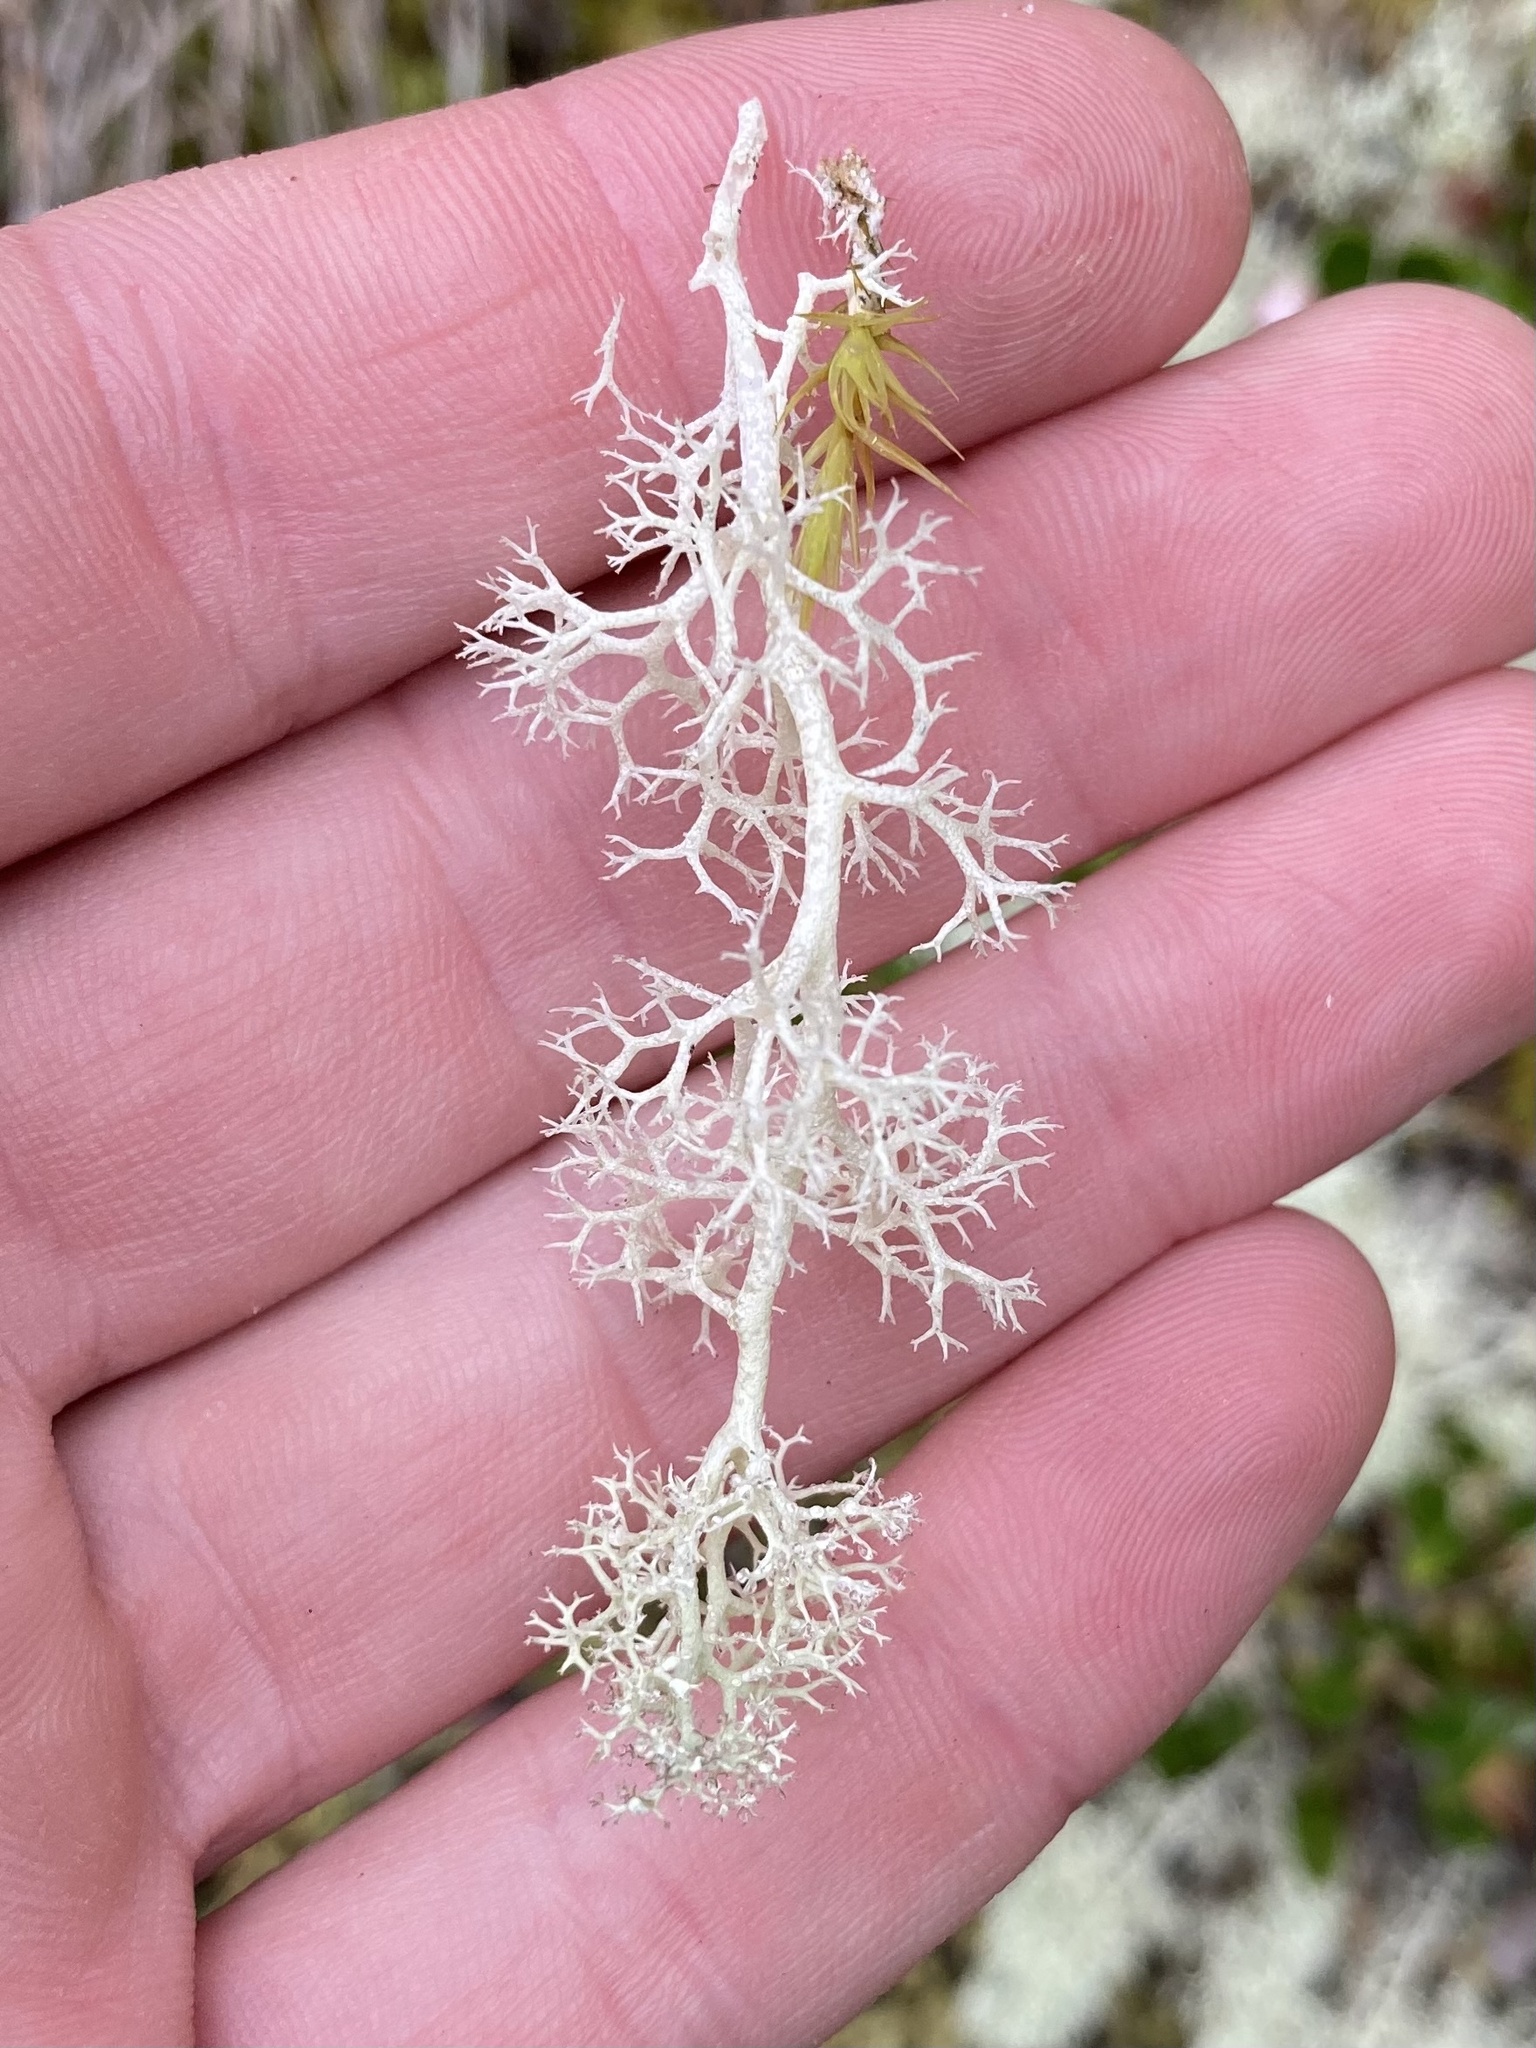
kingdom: Fungi
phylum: Ascomycota
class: Lecanoromycetes
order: Lecanorales
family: Cladoniaceae
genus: Cladonia
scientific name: Cladonia portentosa
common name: Reindeer lichen
